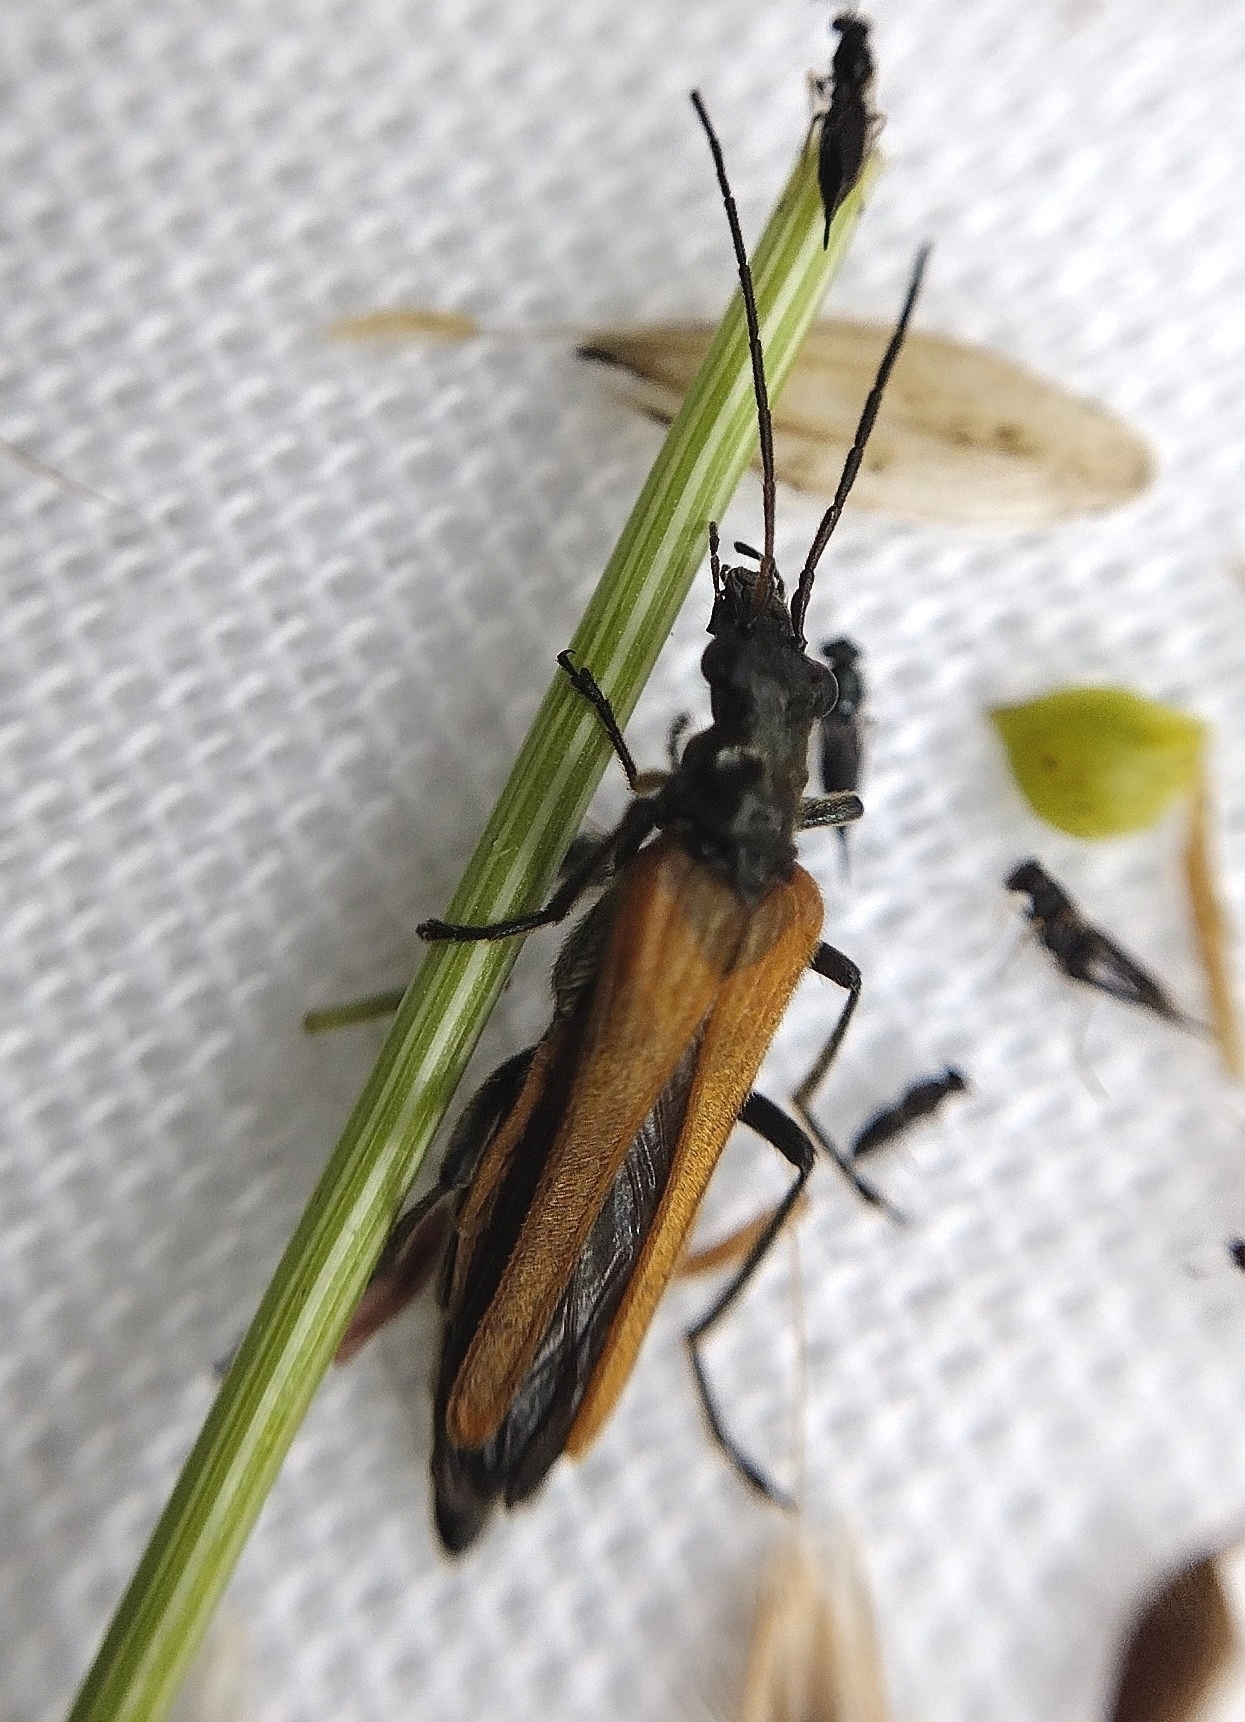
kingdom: Animalia
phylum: Arthropoda
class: Insecta
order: Coleoptera
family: Oedemeridae
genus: Oedemera
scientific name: Oedemera femorata
